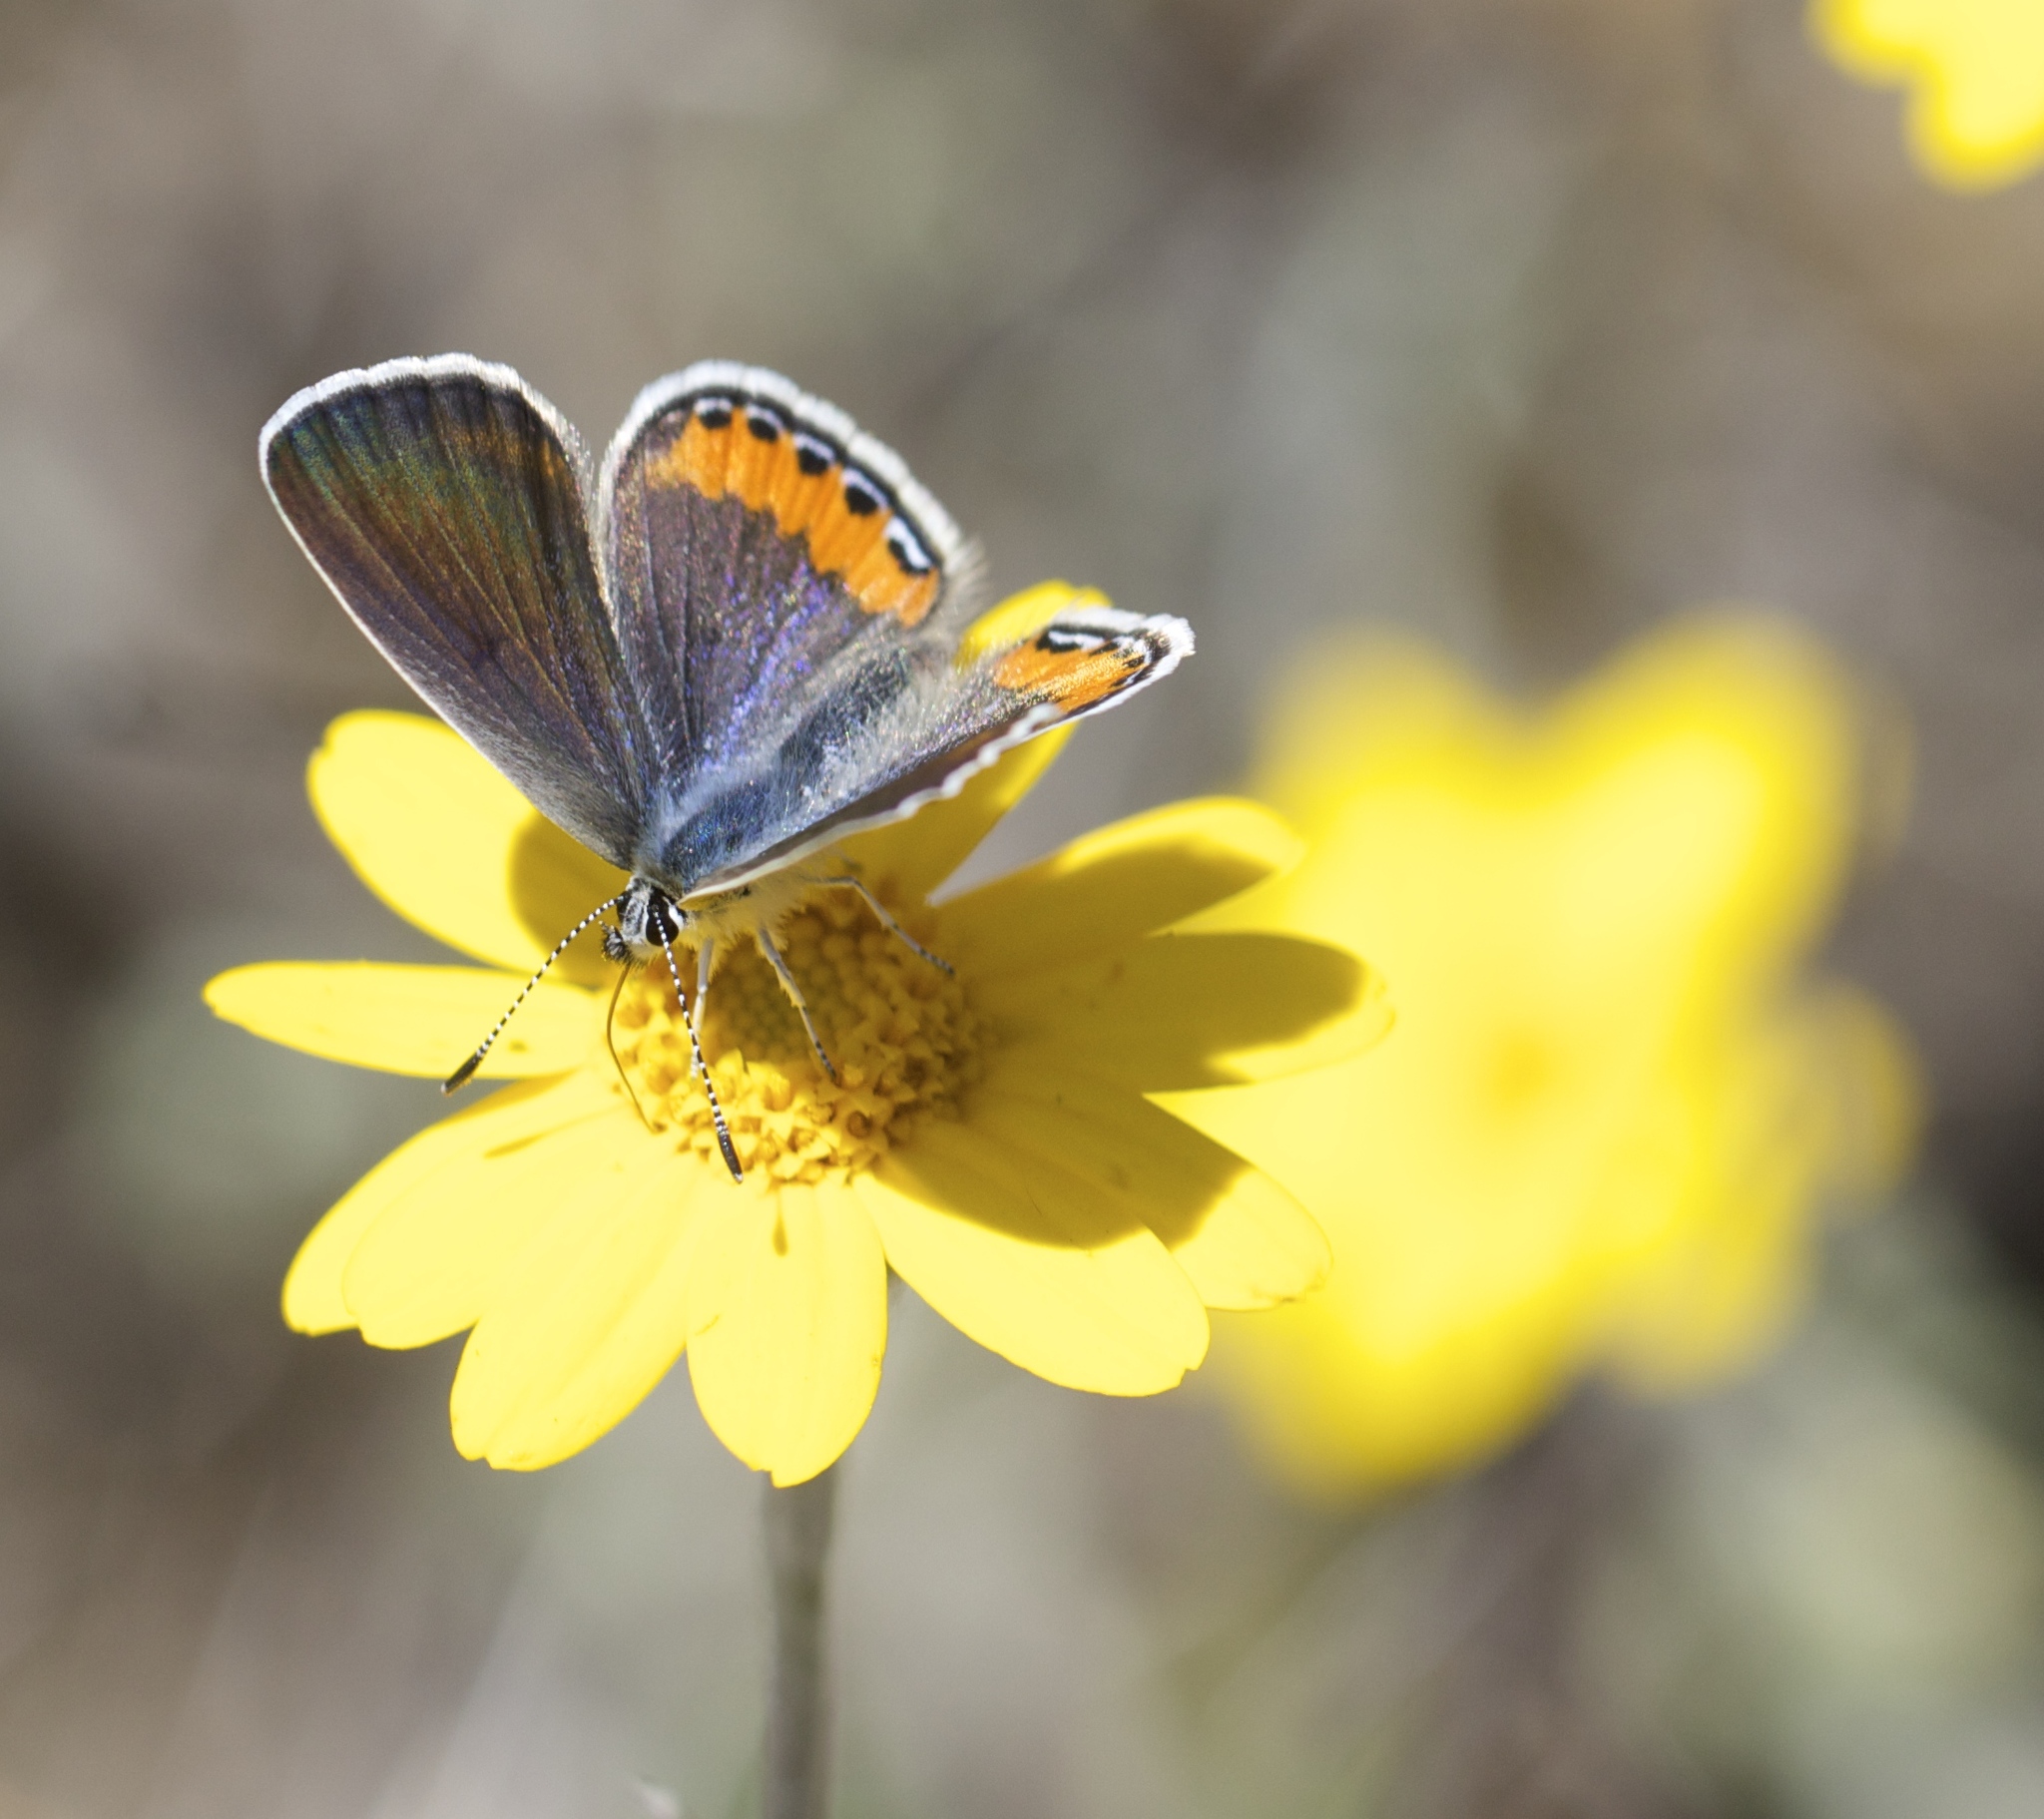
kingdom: Animalia
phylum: Arthropoda
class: Insecta
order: Lepidoptera
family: Lycaenidae
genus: Icaricia
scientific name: Icaricia acmon
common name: Acmon blue
